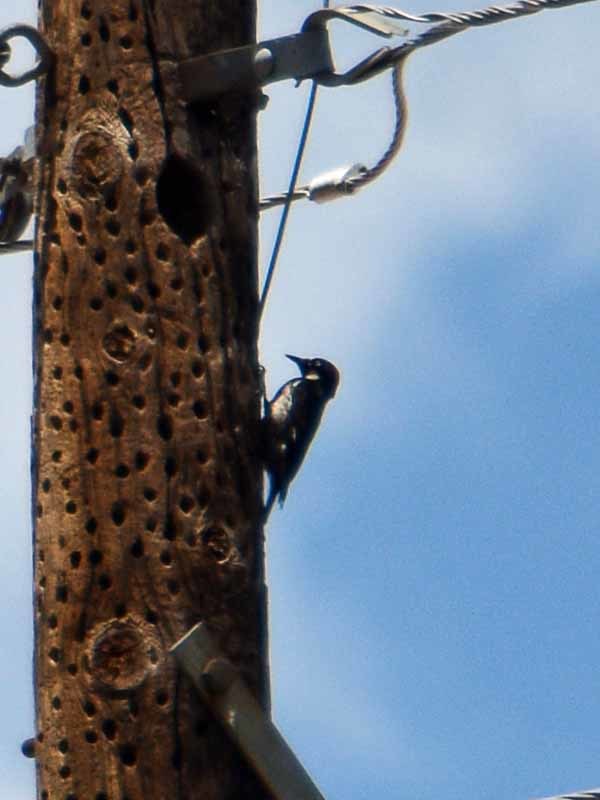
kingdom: Animalia
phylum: Chordata
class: Aves
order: Piciformes
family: Picidae
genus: Melanerpes
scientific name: Melanerpes formicivorus
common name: Acorn woodpecker
